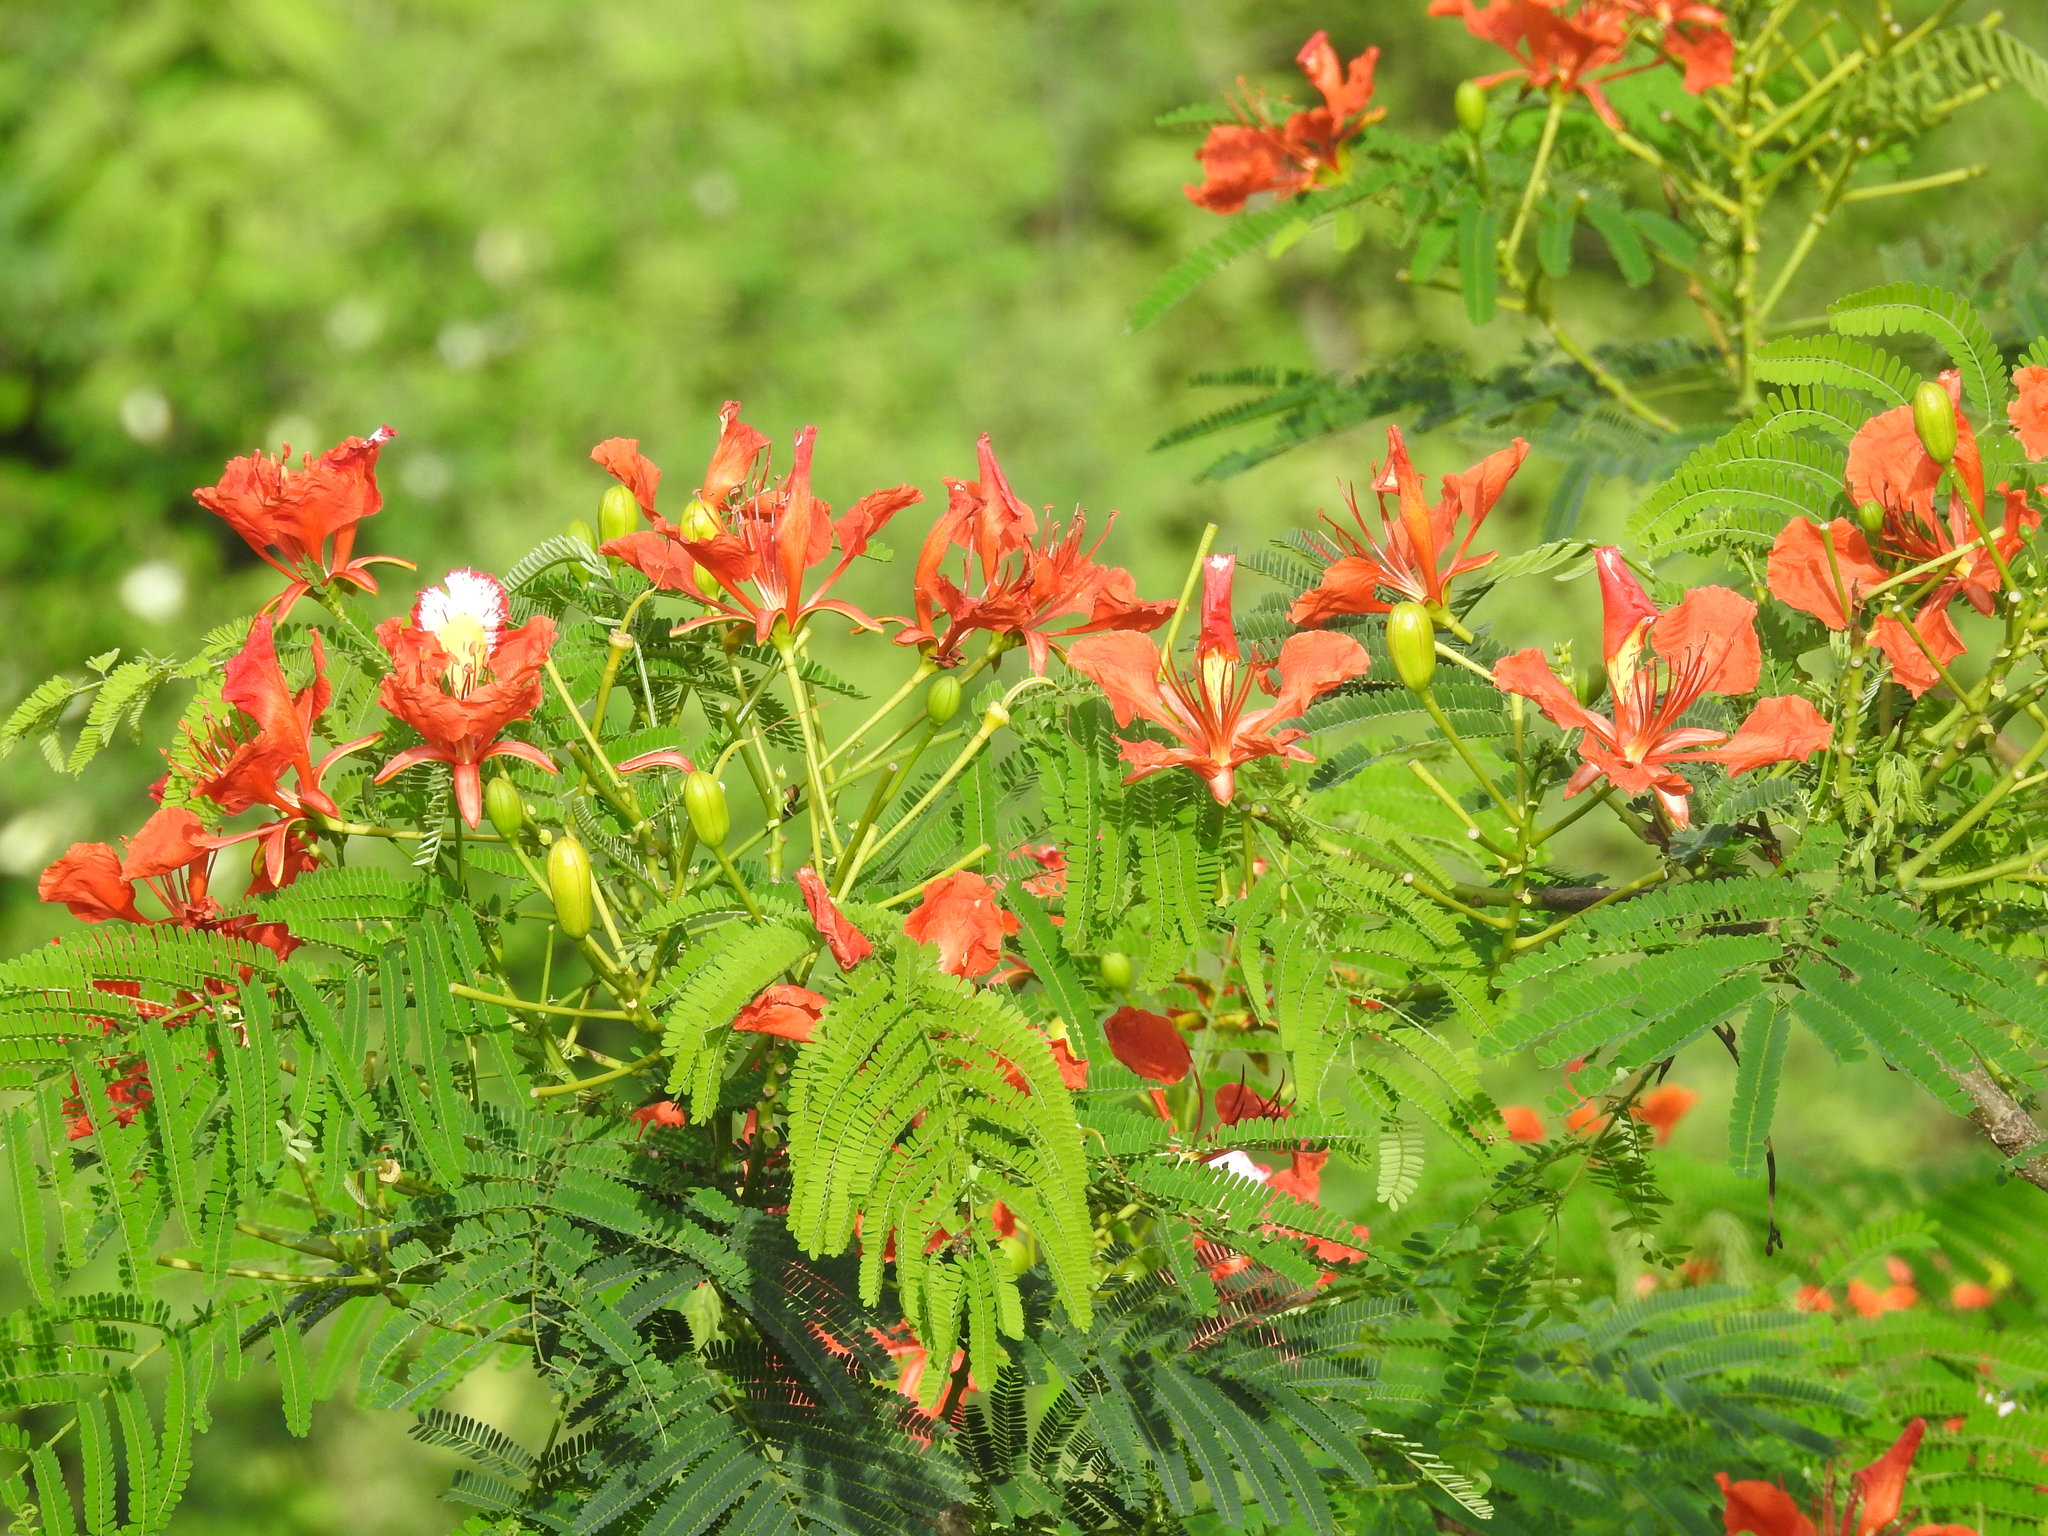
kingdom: Plantae
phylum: Tracheophyta
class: Magnoliopsida
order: Fabales
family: Fabaceae
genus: Delonix
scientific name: Delonix regia
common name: Royal poinciana
